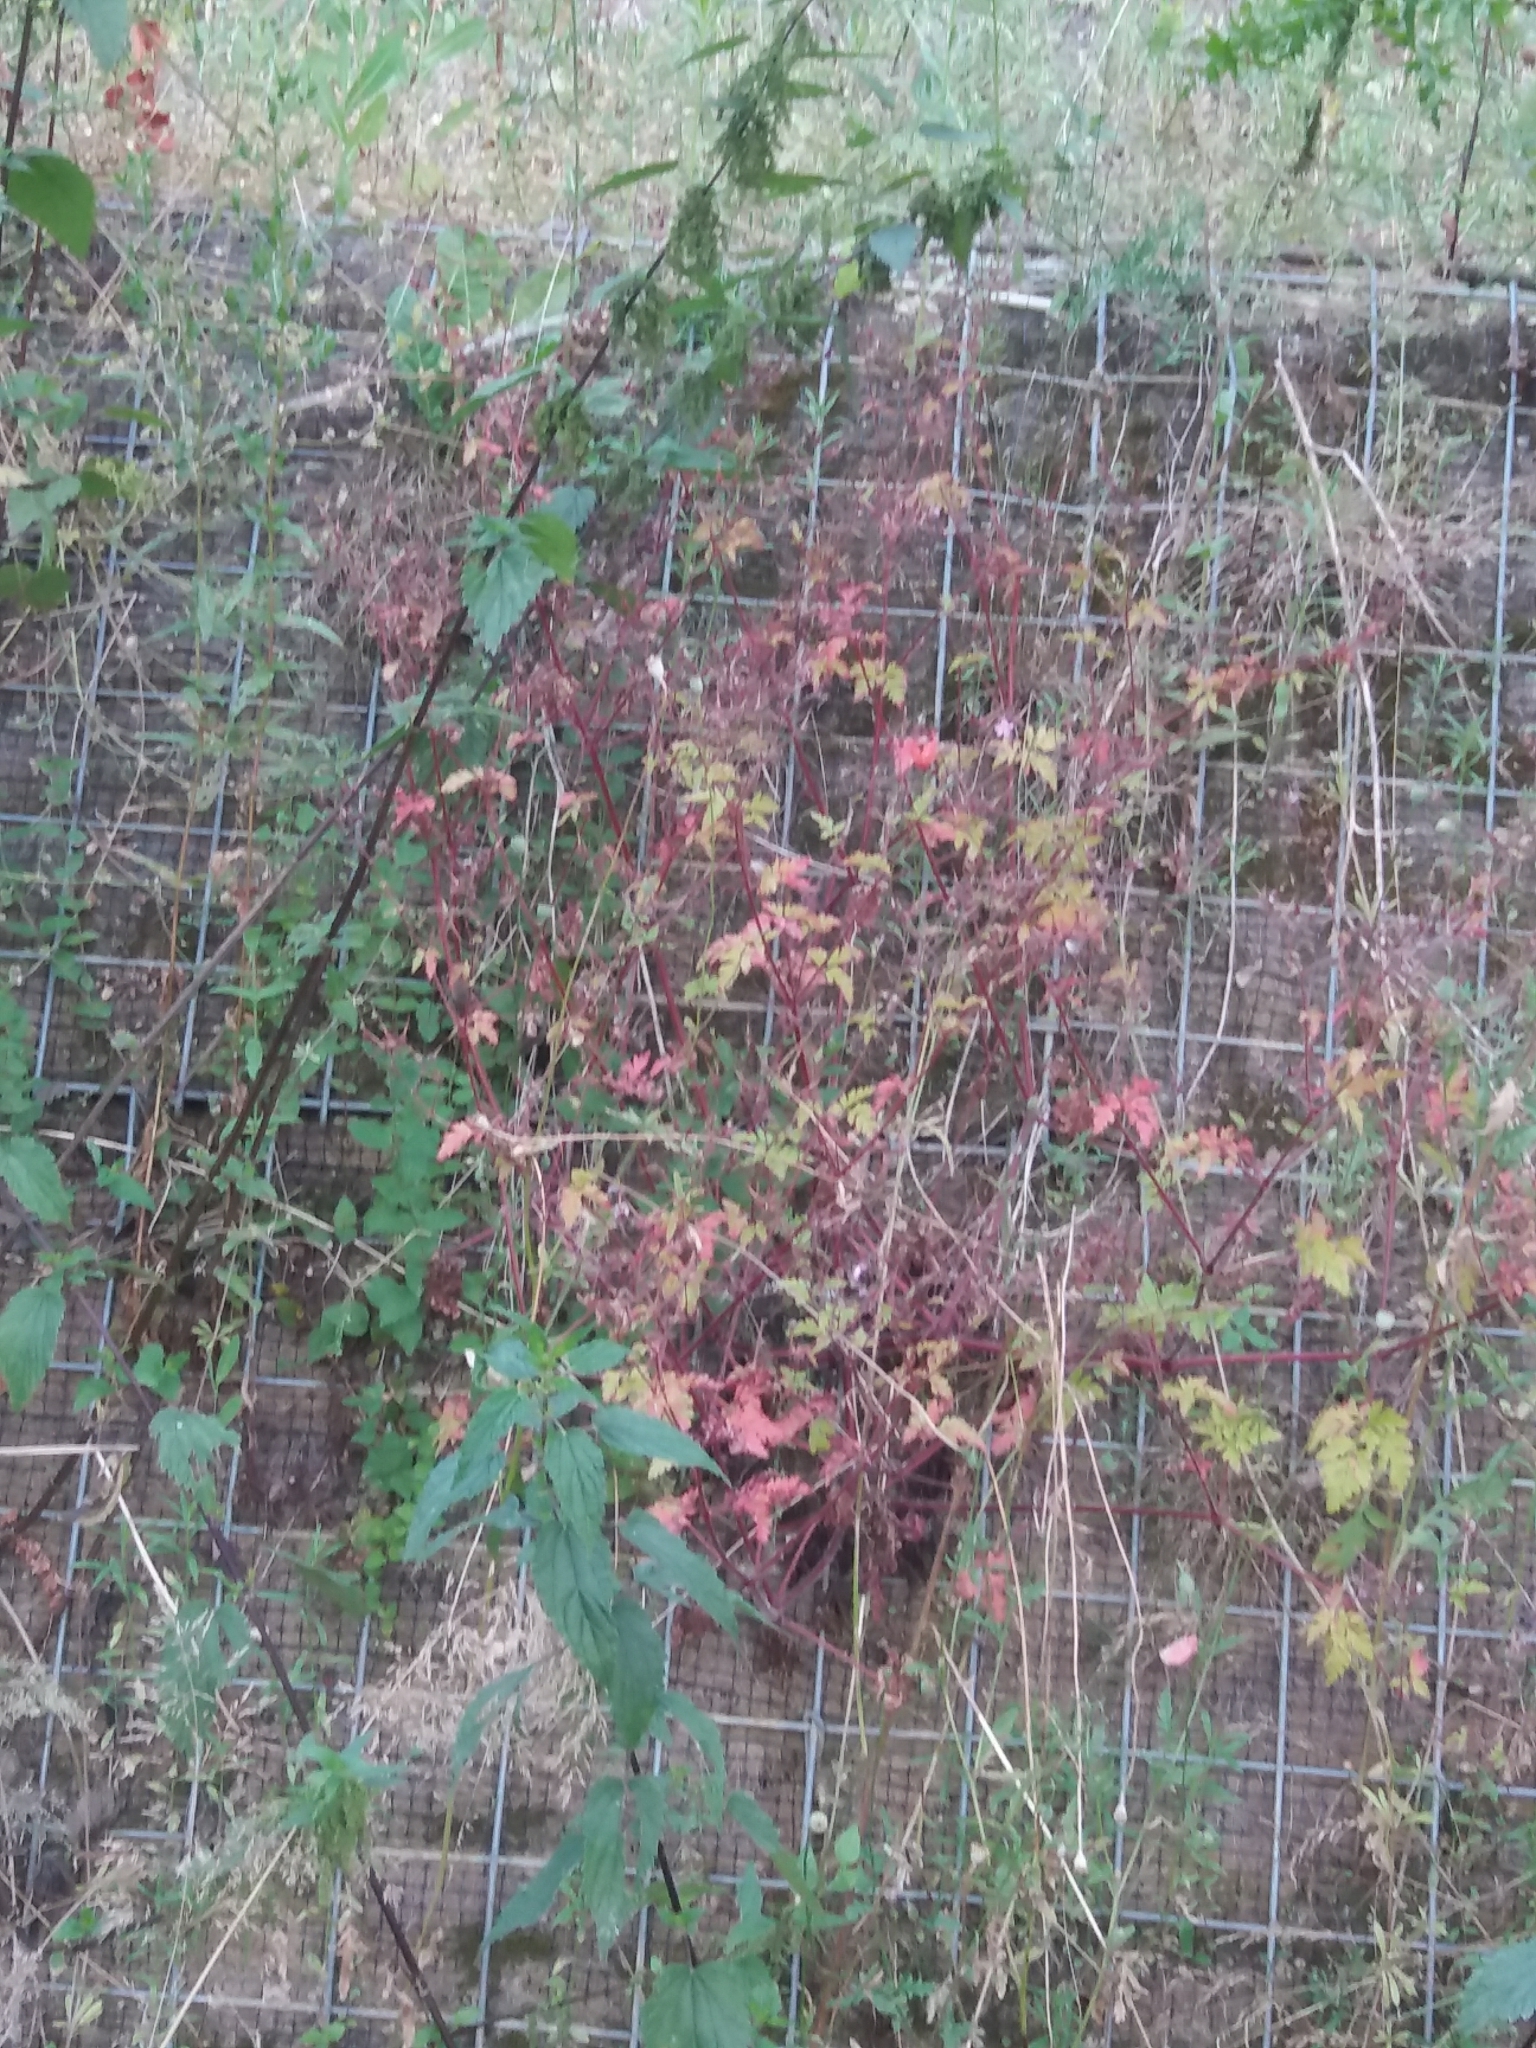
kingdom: Plantae
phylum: Tracheophyta
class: Magnoliopsida
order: Geraniales
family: Geraniaceae
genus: Geranium
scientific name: Geranium robertianum
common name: Herb-robert
